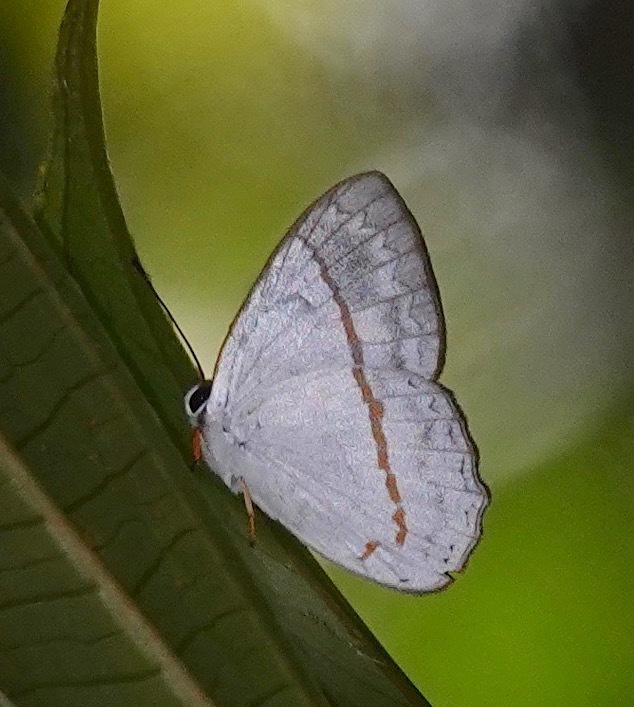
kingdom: Animalia
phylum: Arthropoda
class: Insecta
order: Lepidoptera
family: Lycaenidae
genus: Euselasia
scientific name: Euselasia
